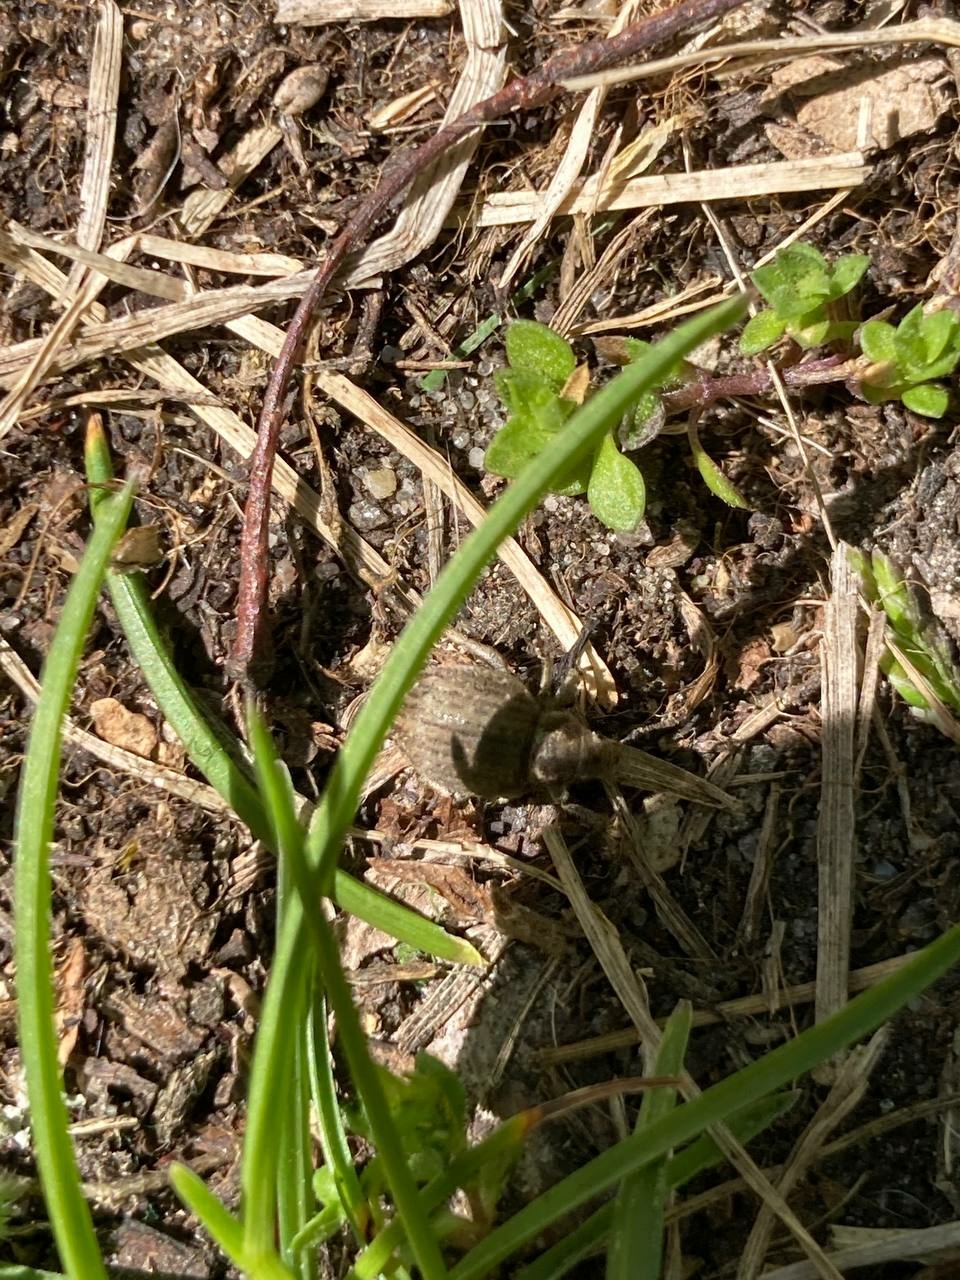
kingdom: Animalia
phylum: Arthropoda
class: Insecta
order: Coleoptera
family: Curculionidae
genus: Philopedon
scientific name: Philopedon plagiatum
